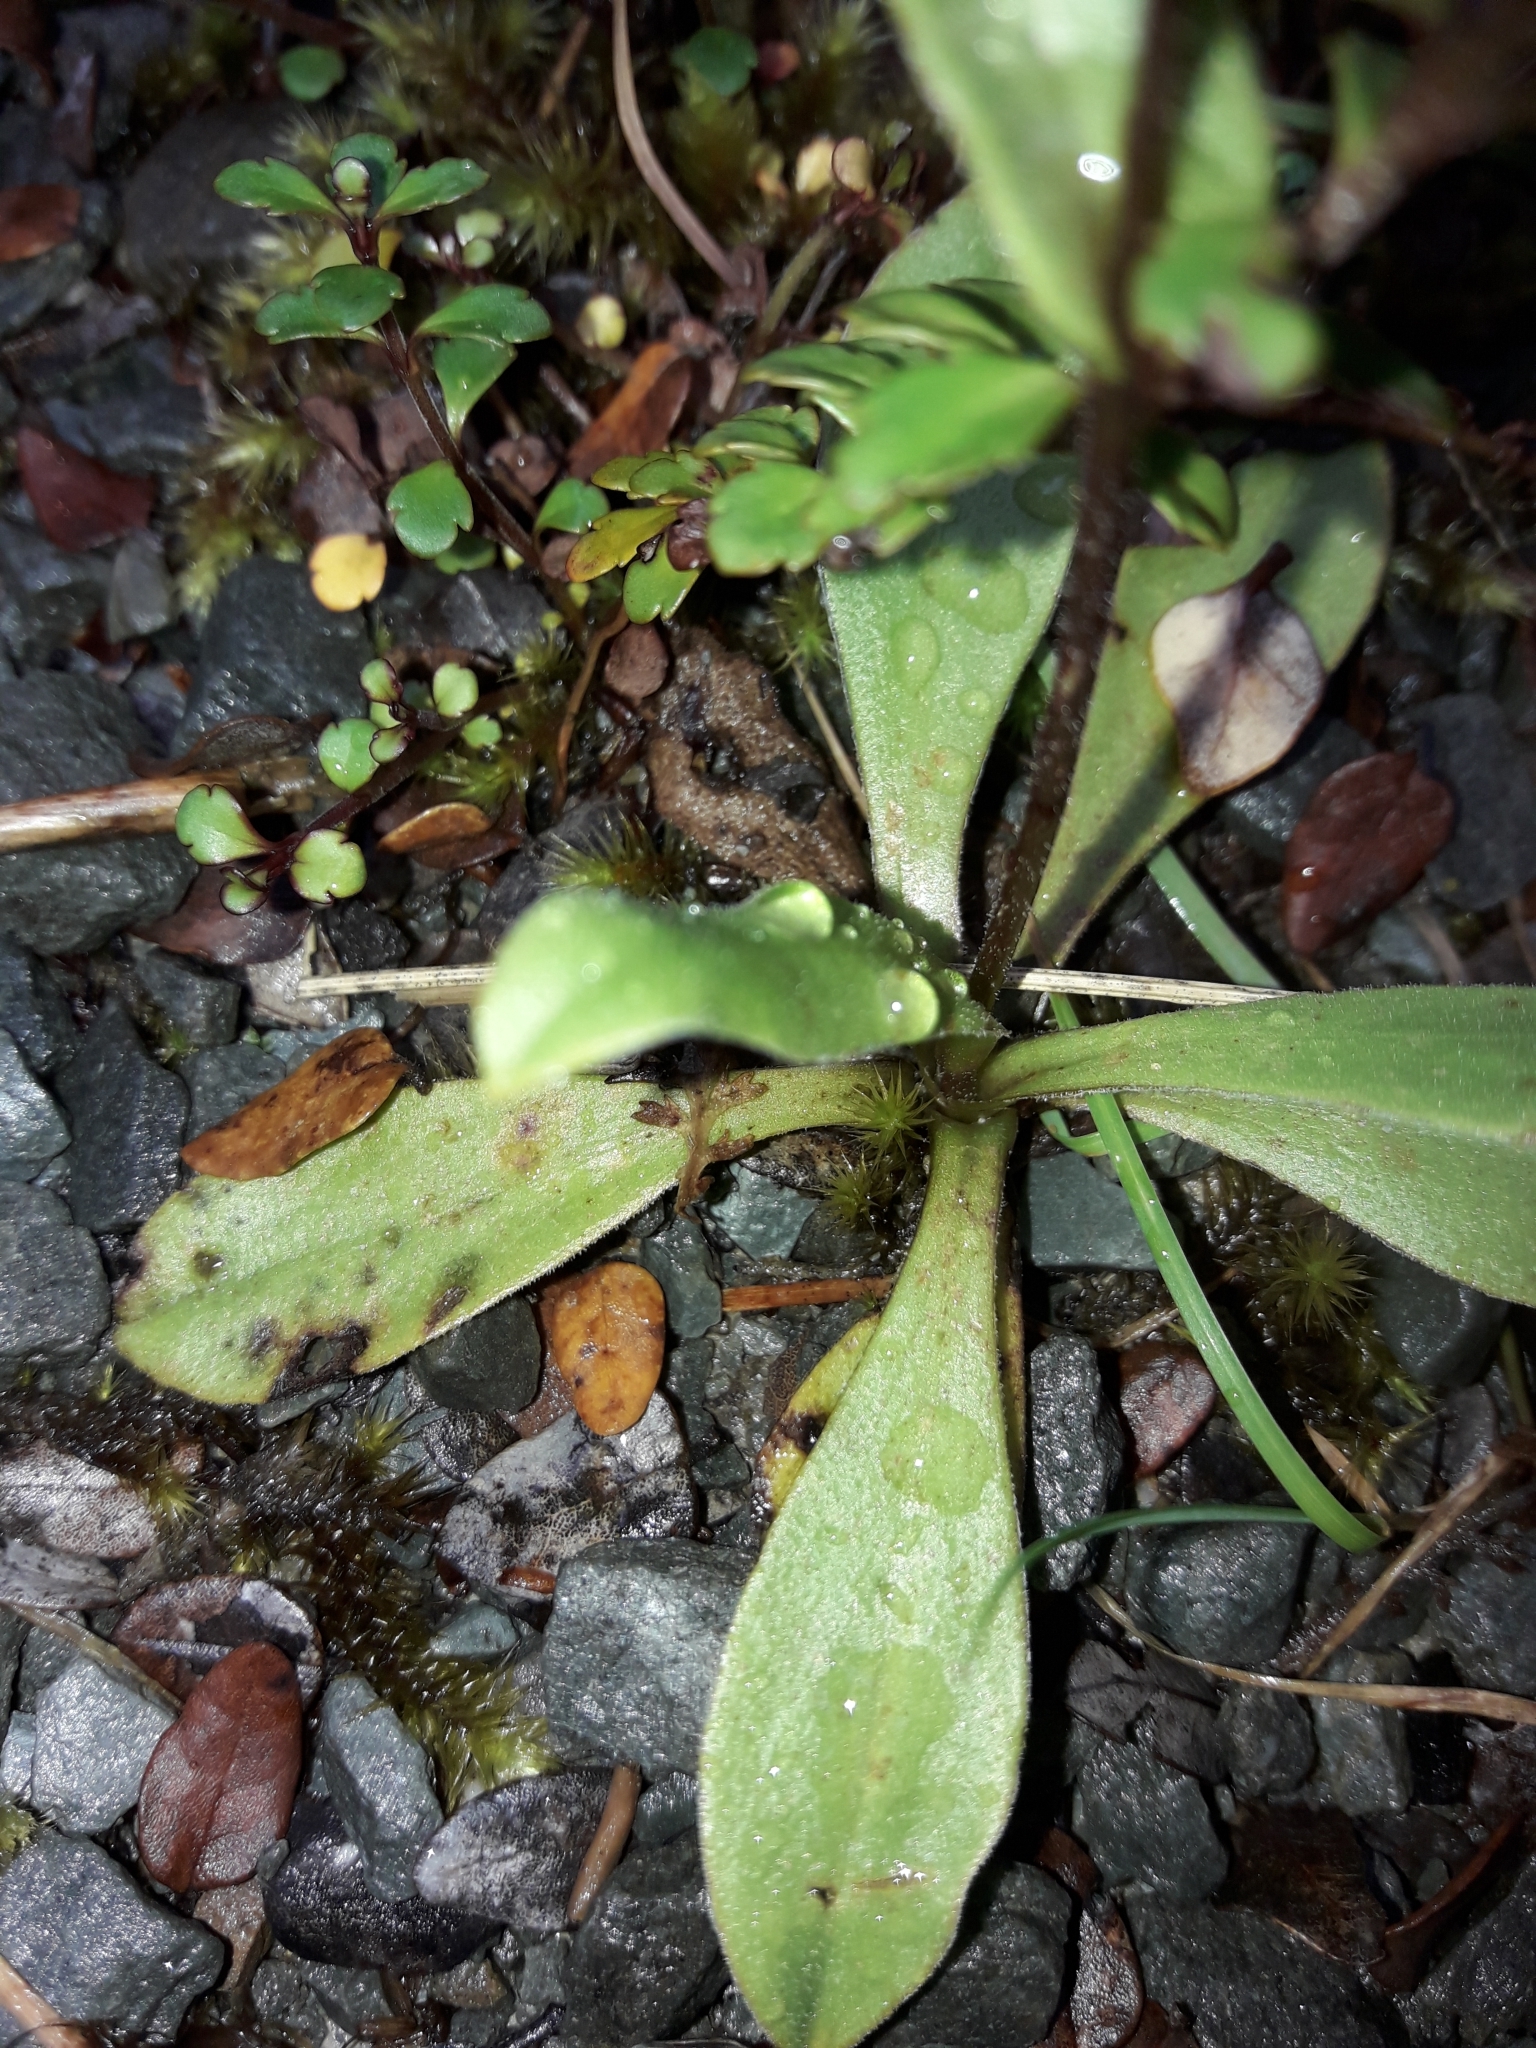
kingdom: Plantae
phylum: Tracheophyta
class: Magnoliopsida
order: Asterales
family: Asteraceae
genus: Craspedia
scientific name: Craspedia uniflora
